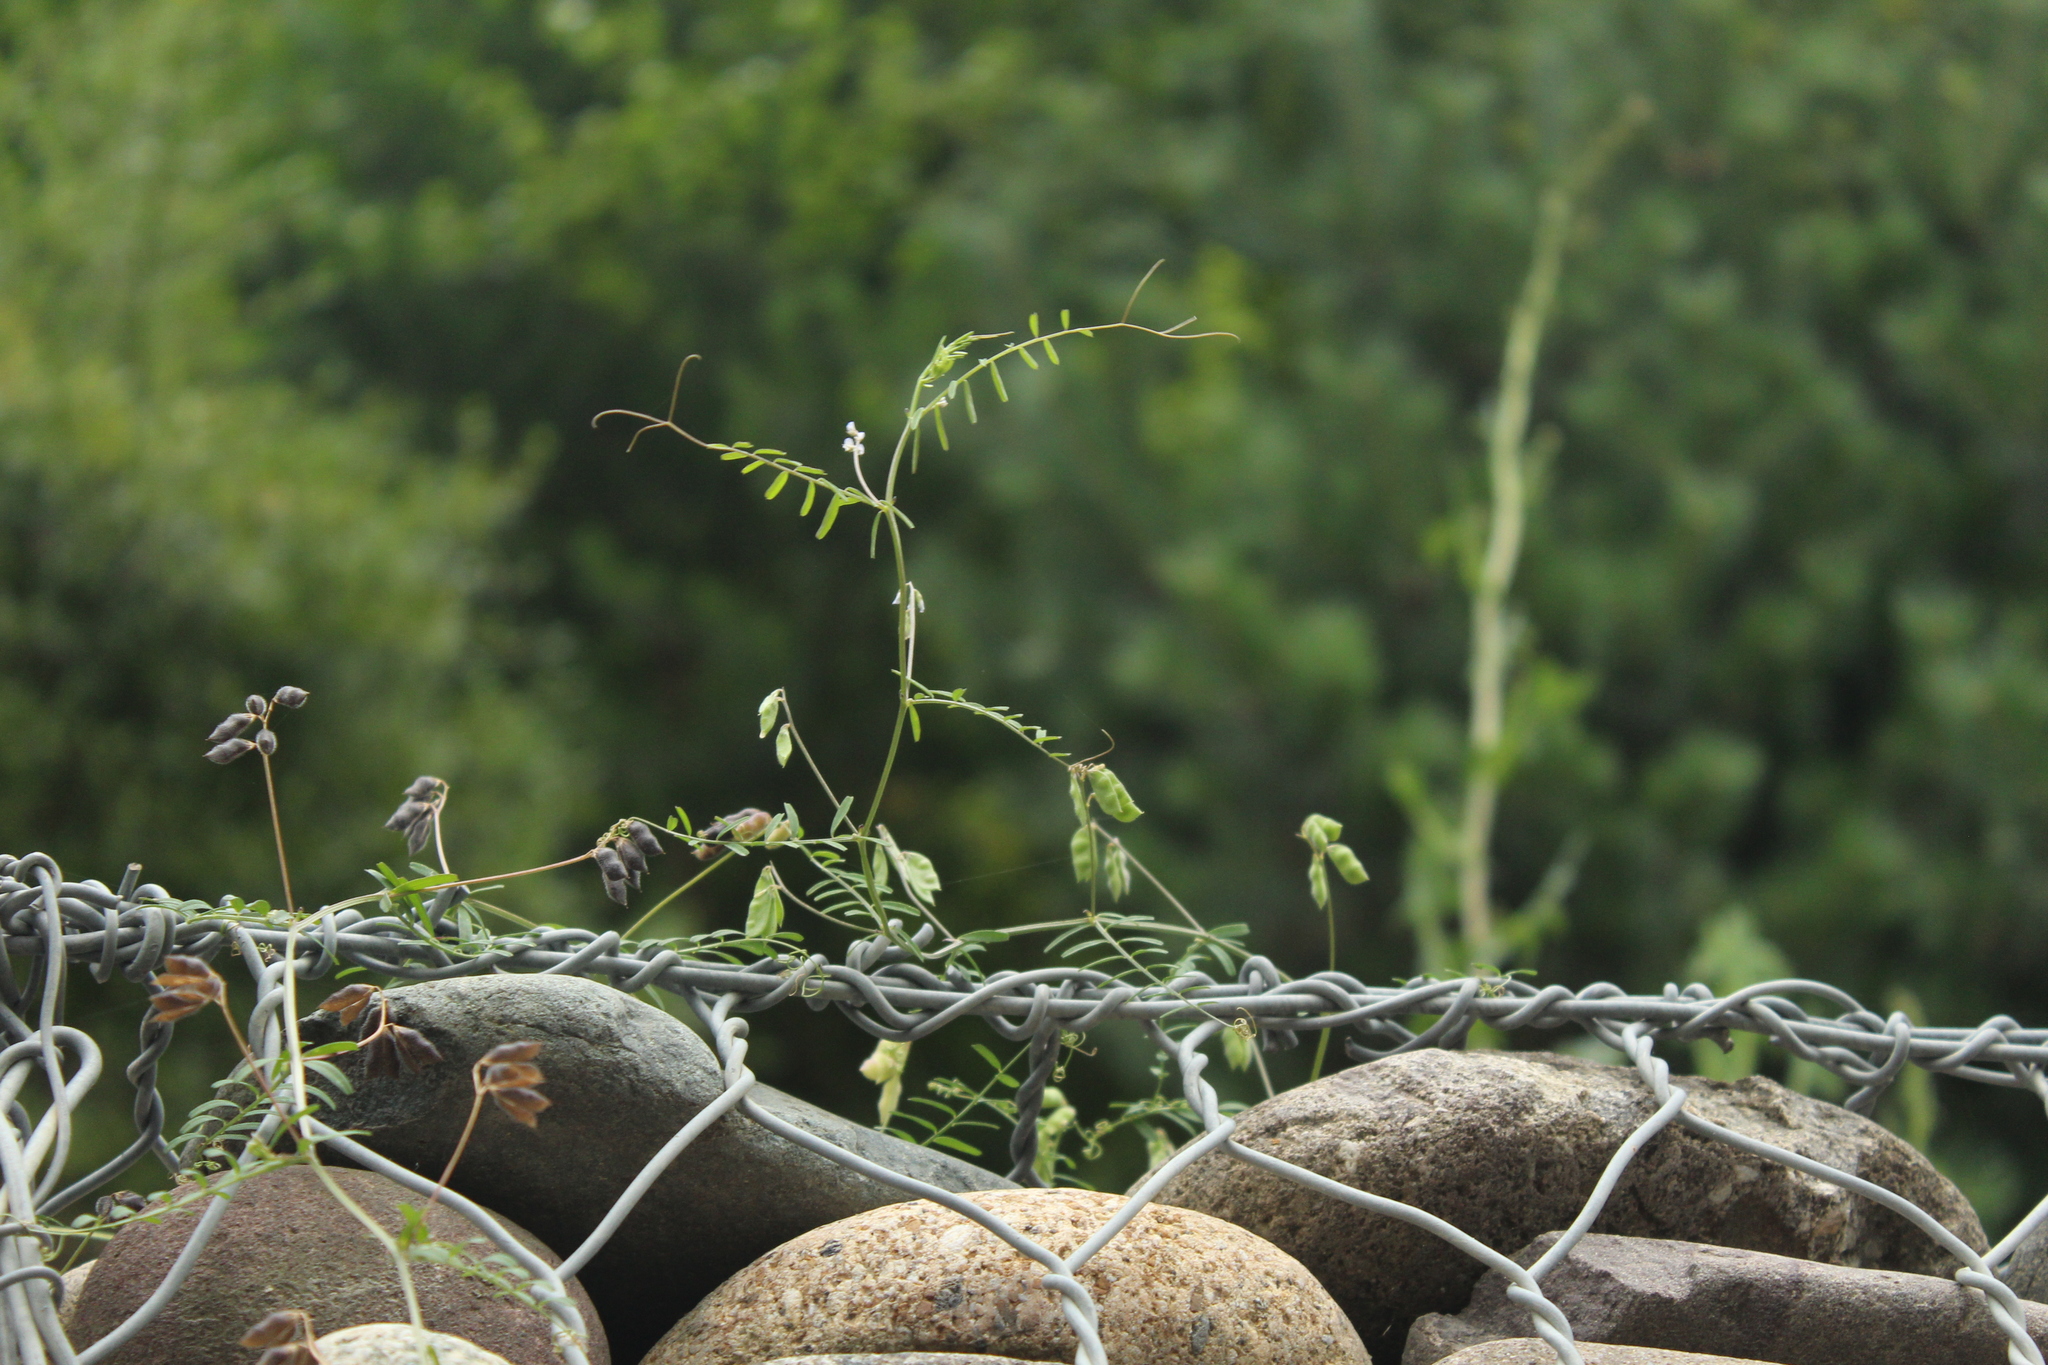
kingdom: Plantae
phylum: Tracheophyta
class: Magnoliopsida
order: Fabales
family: Fabaceae
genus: Vicia
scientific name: Vicia hirsuta
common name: Tiny vetch
